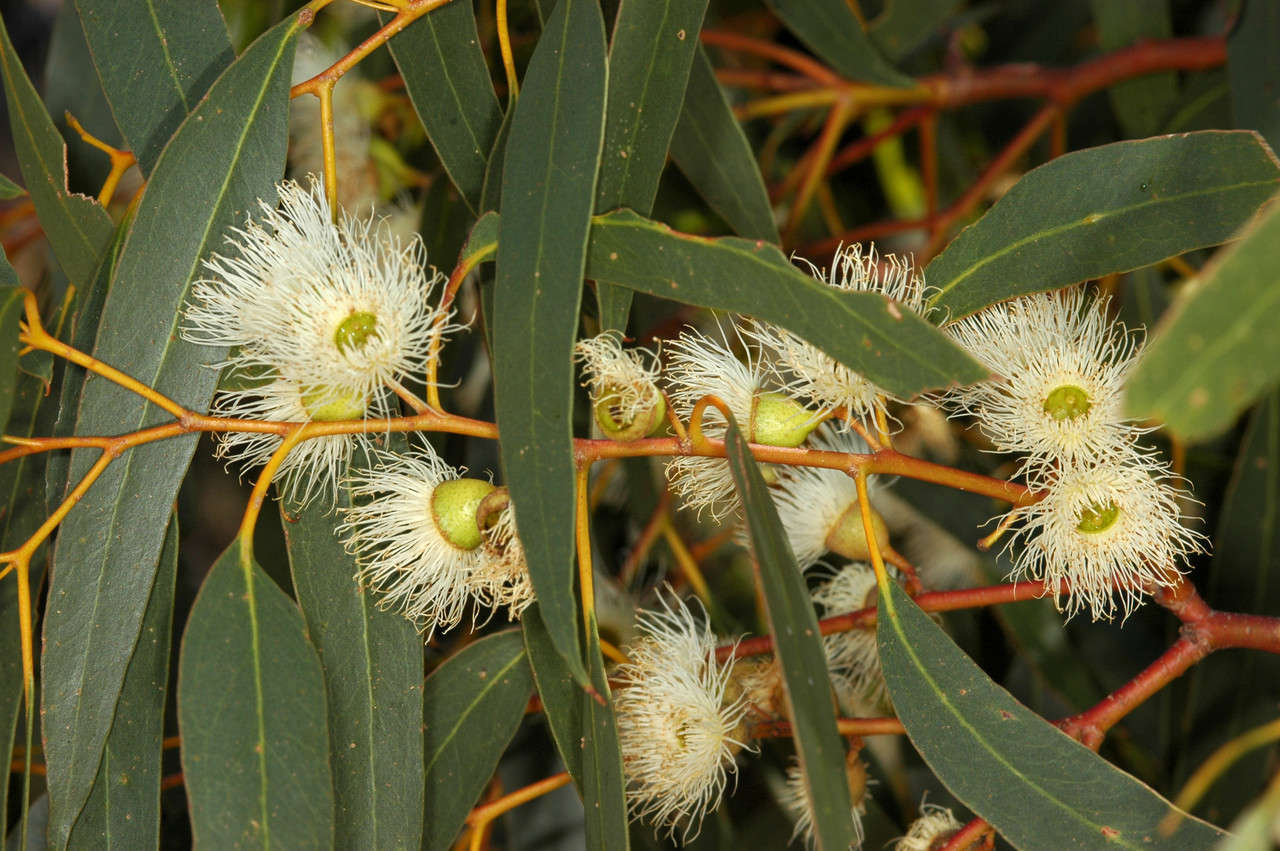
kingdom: Plantae
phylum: Tracheophyta
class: Magnoliopsida
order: Myrtales
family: Myrtaceae
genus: Eucalyptus
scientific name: Eucalyptus leucoxylon
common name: Blue gum
